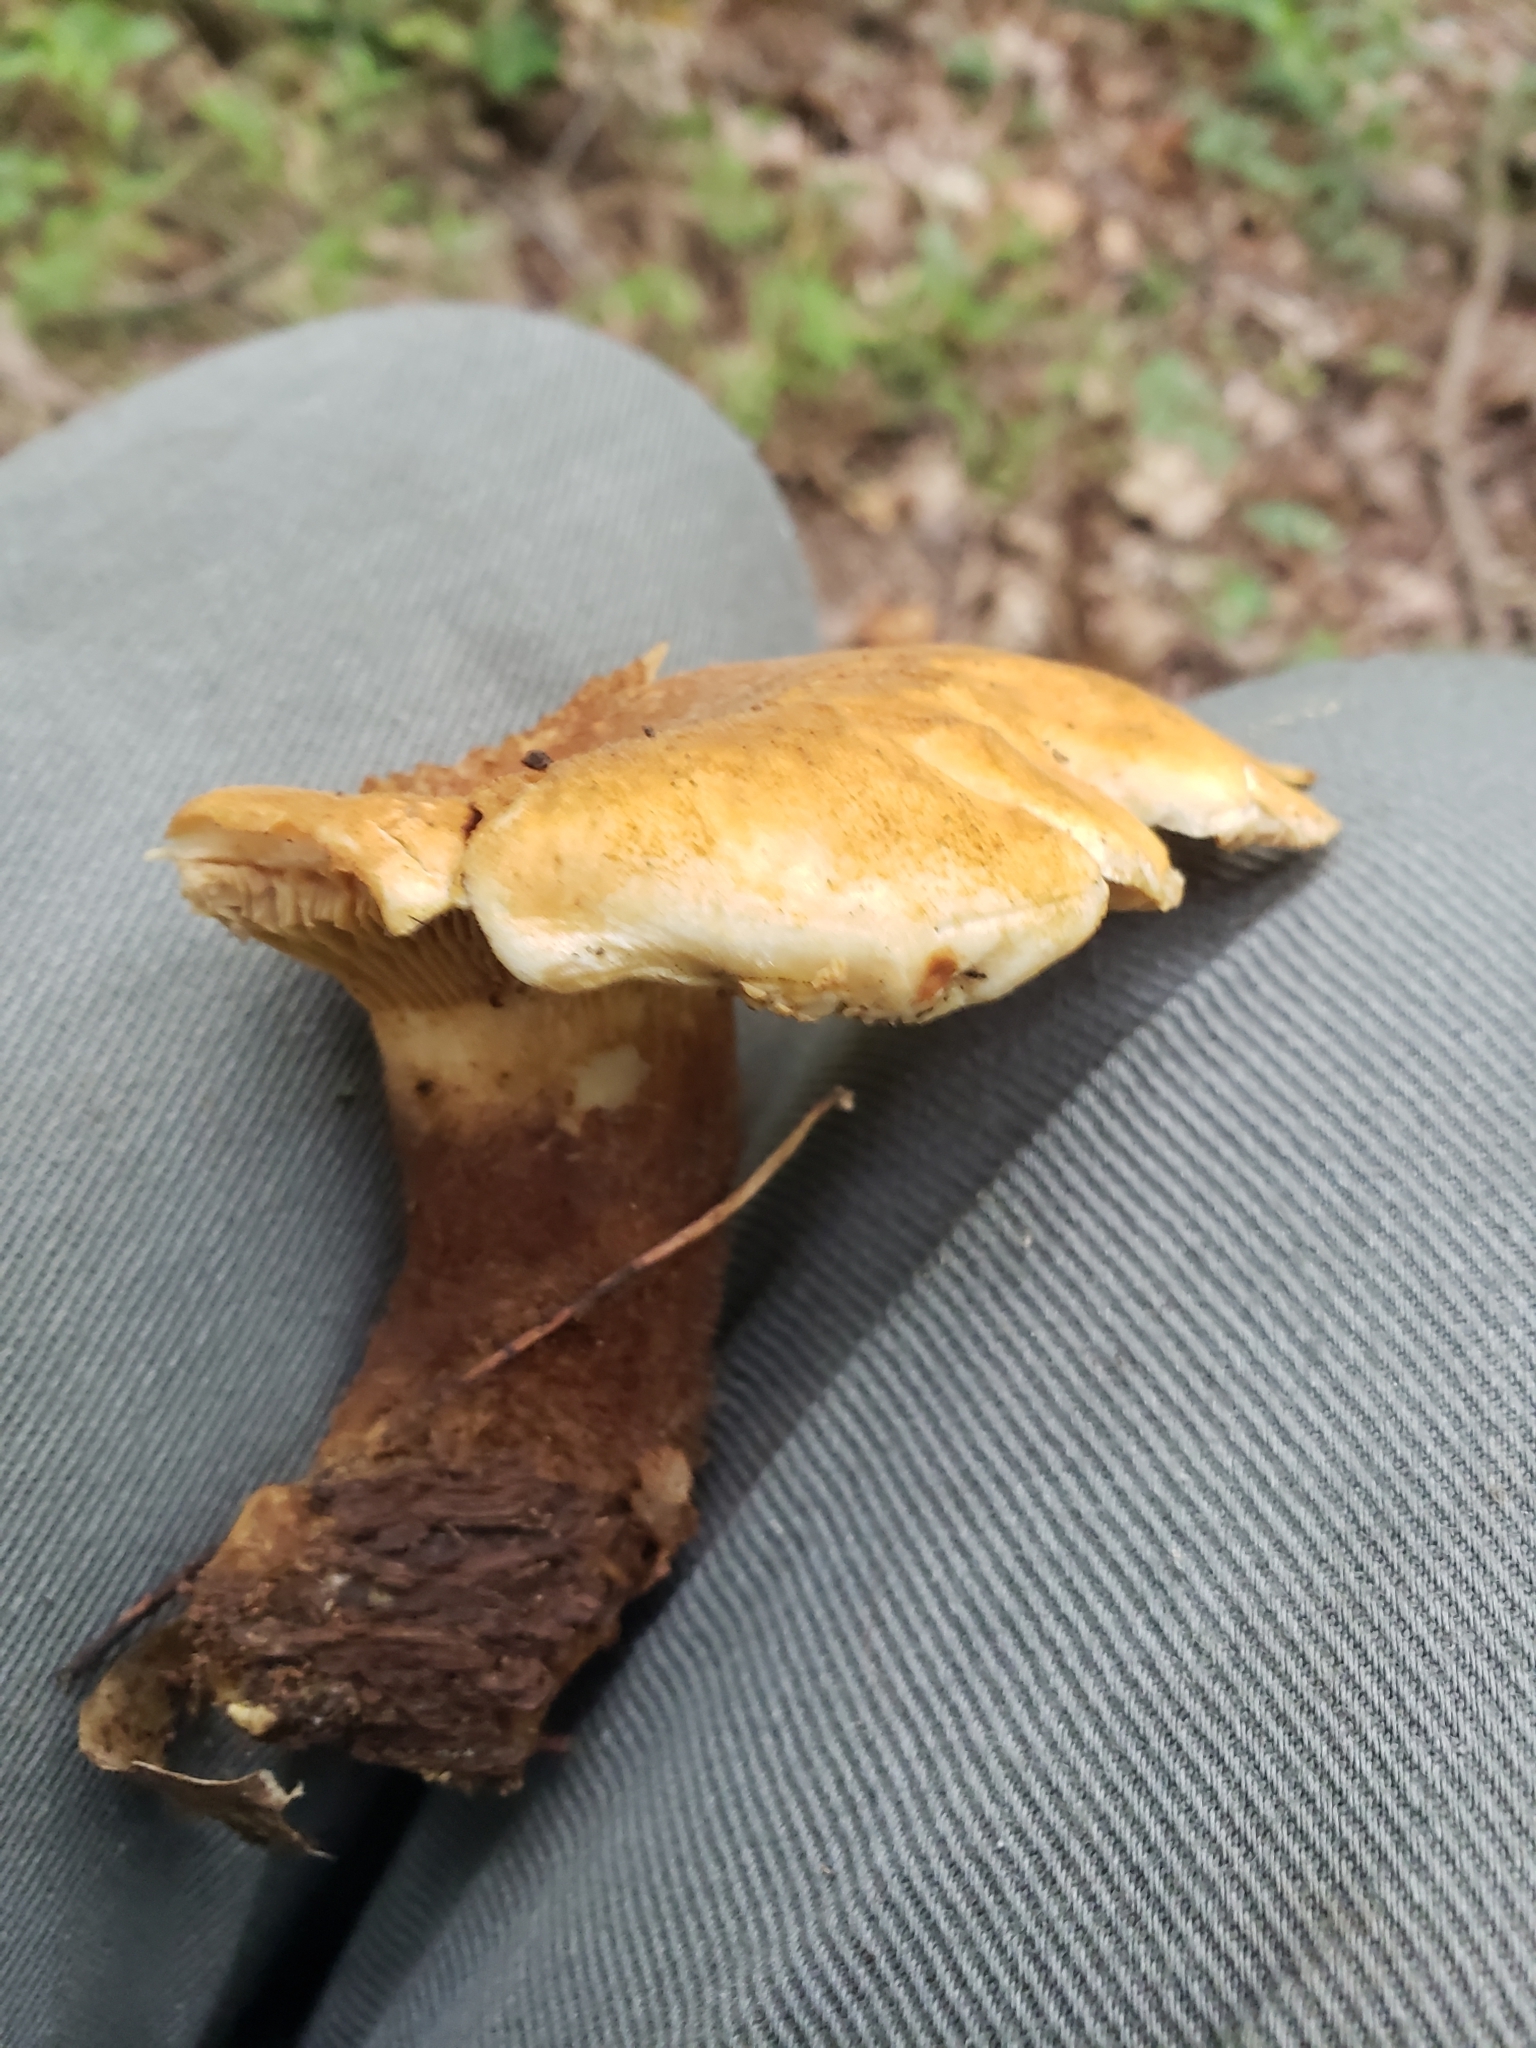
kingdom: Fungi
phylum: Basidiomycota
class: Agaricomycetes
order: Boletales
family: Tapinellaceae
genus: Tapinella
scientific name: Tapinella atrotomentosa
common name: Velvet rollrim
